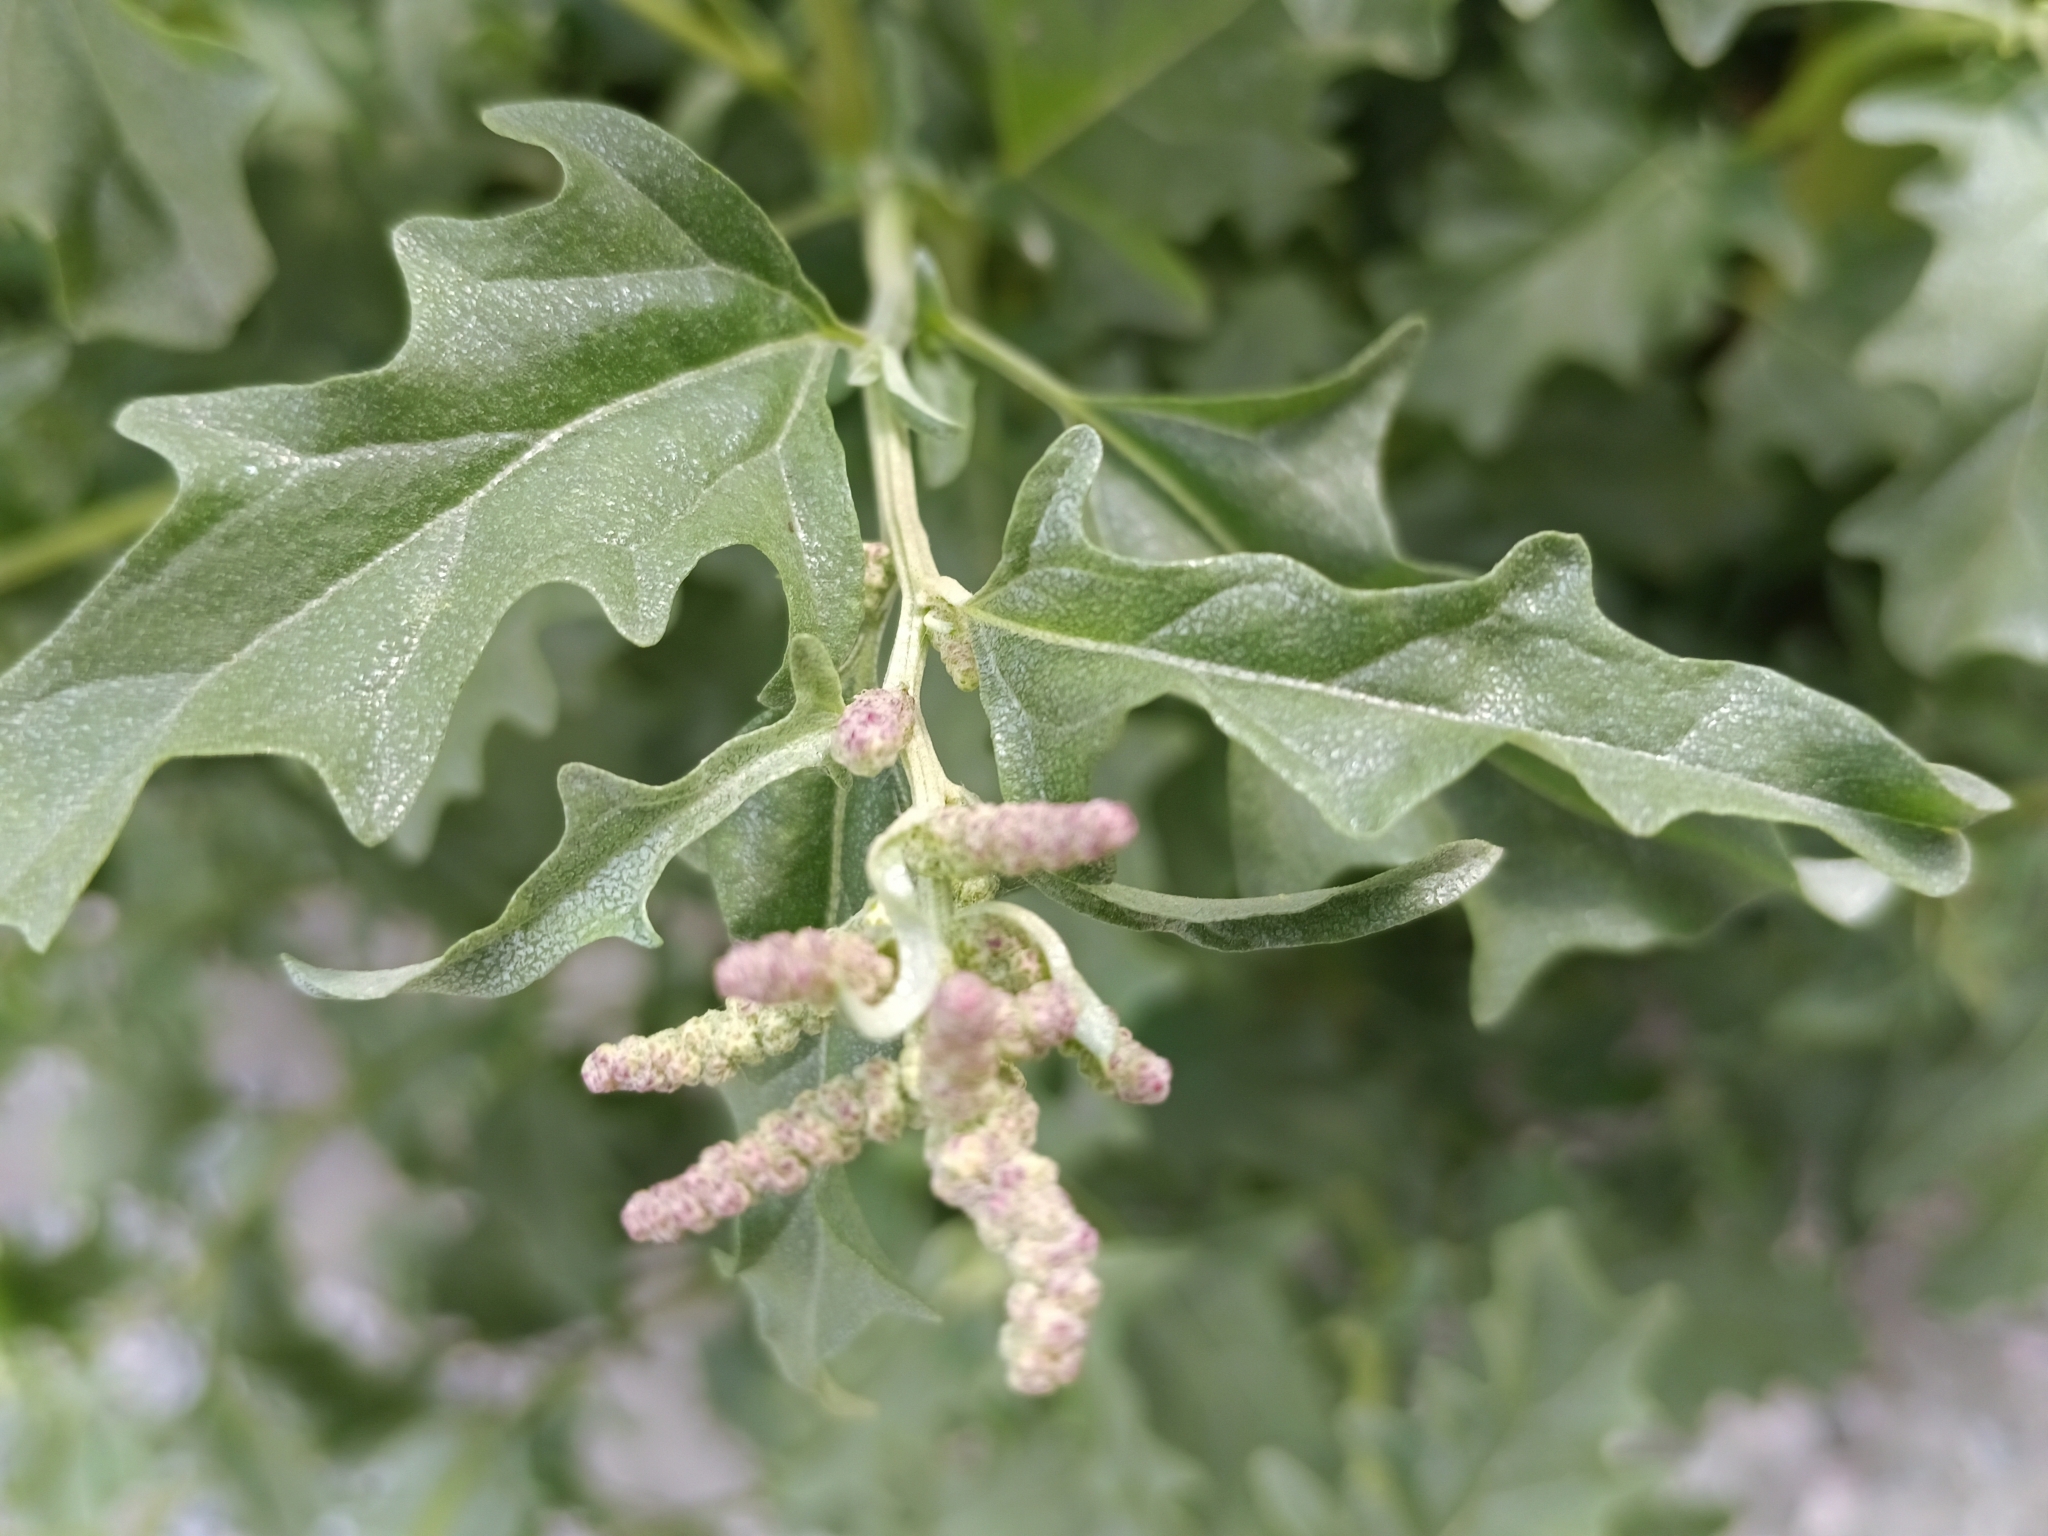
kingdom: Plantae
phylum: Tracheophyta
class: Magnoliopsida
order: Caryophyllales
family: Amaranthaceae
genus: Atriplex
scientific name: Atriplex tatarica
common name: Tatarian orache
